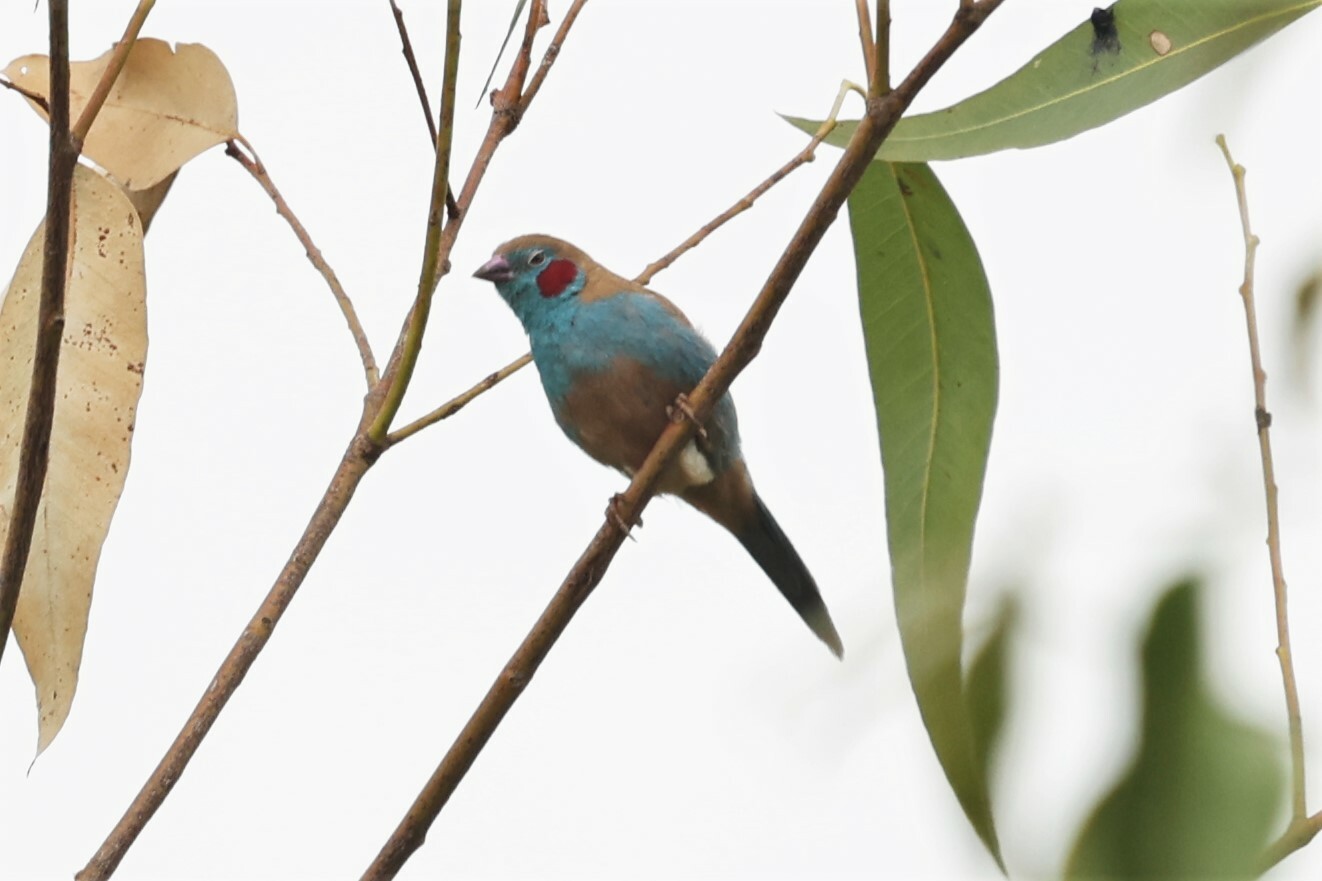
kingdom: Animalia
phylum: Chordata
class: Aves
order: Passeriformes
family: Estrildidae
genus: Uraeginthus
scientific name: Uraeginthus bengalus
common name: Red-cheeked cordon-bleu
